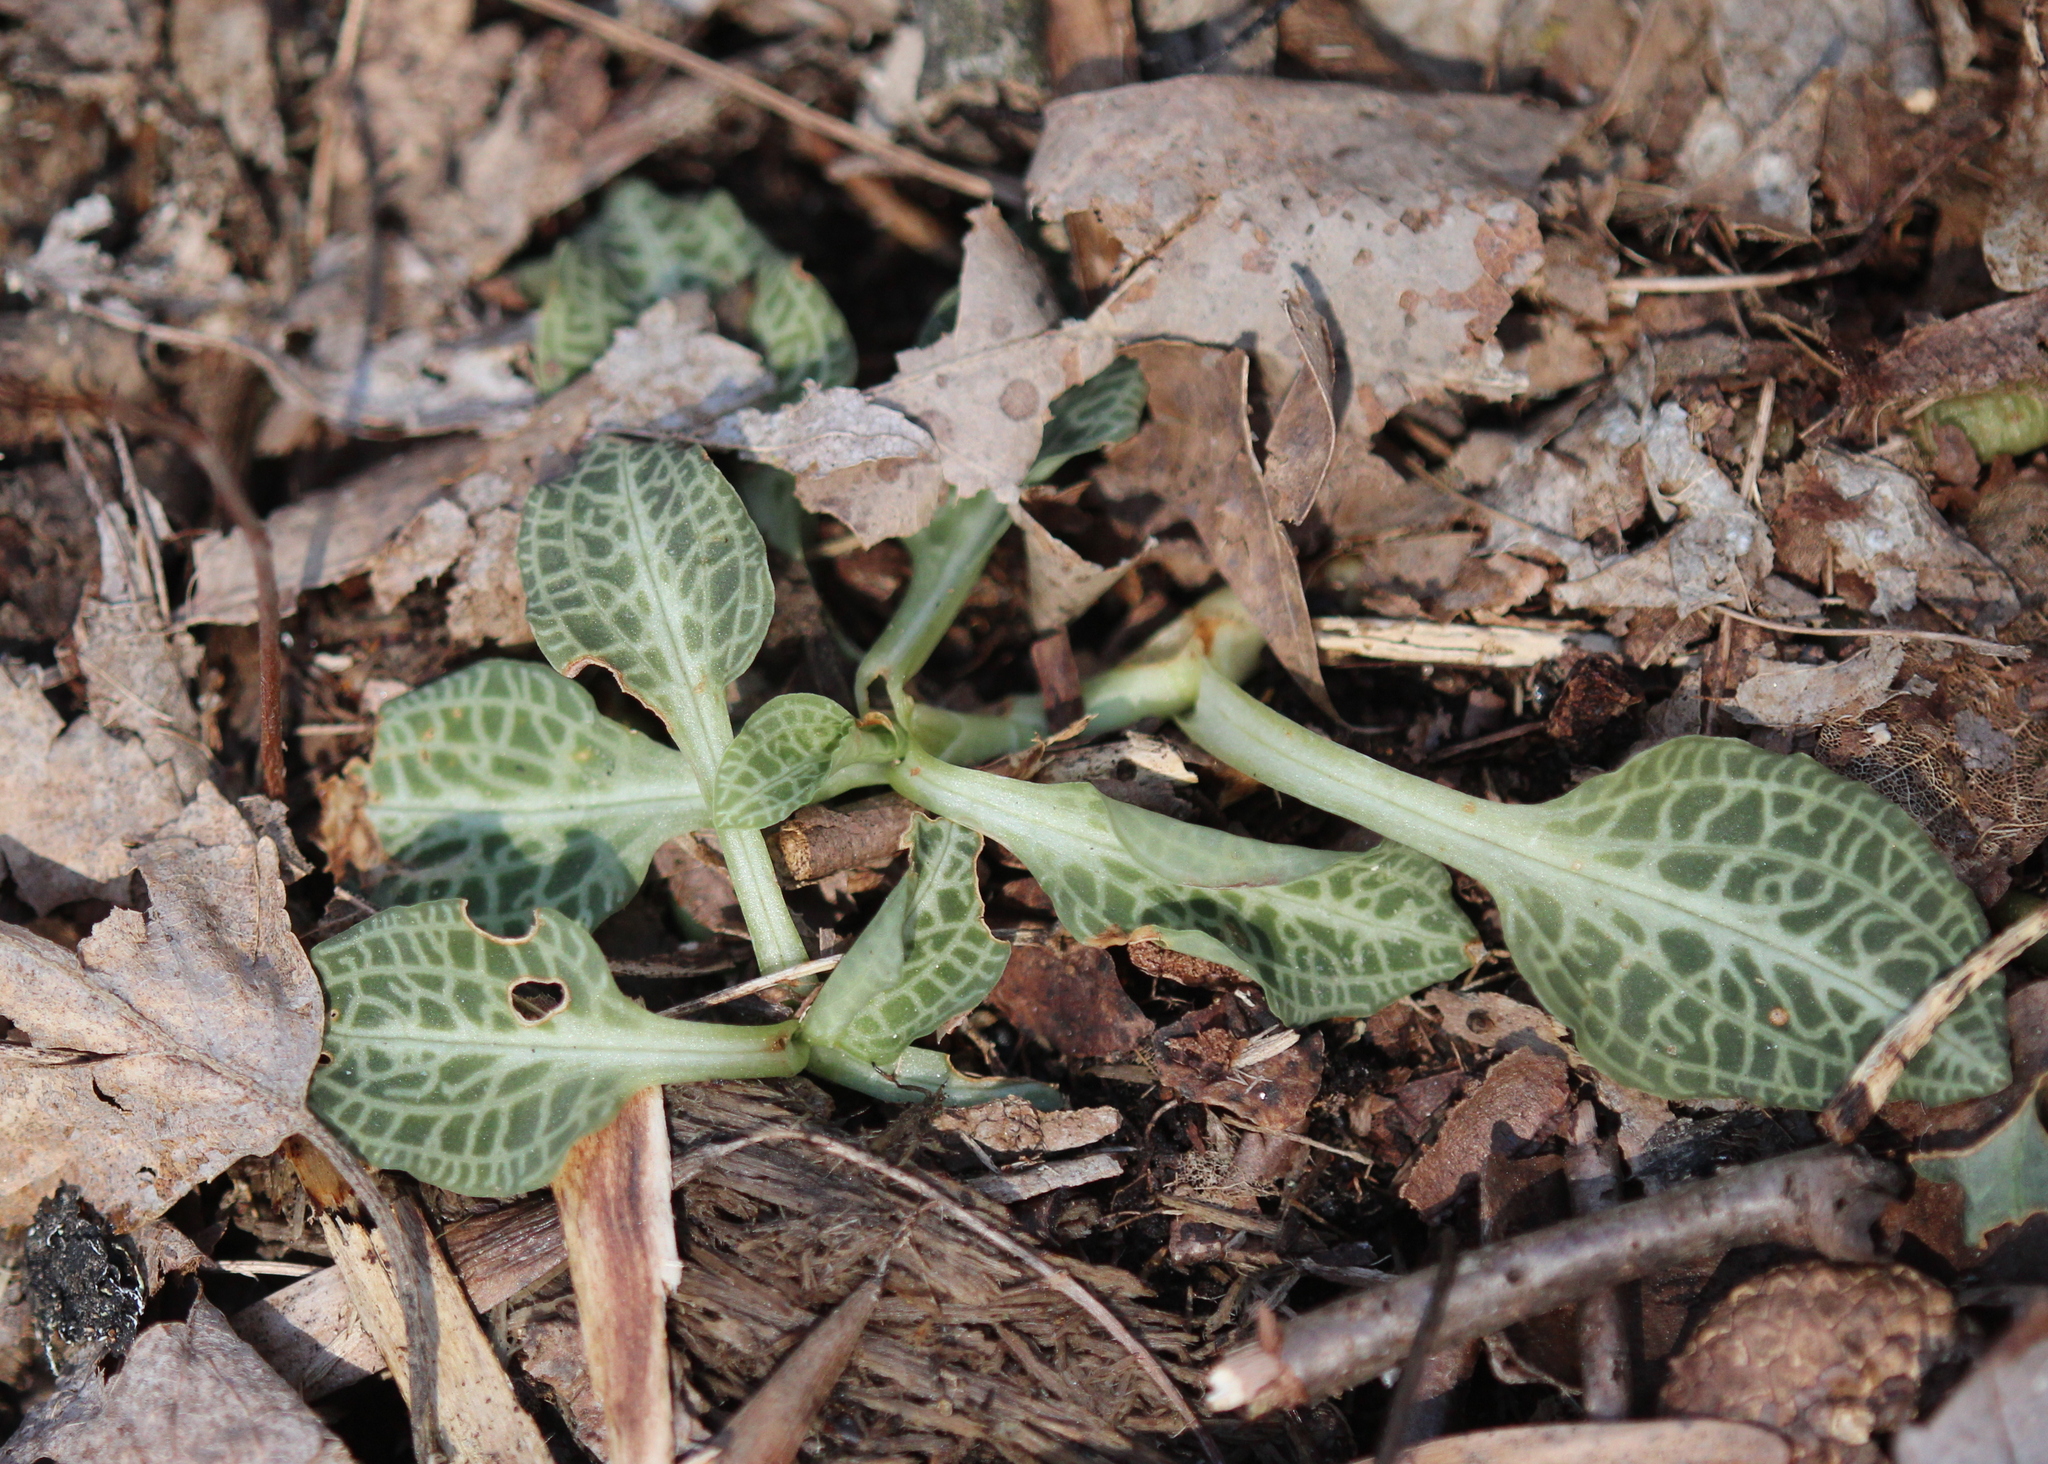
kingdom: Plantae
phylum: Tracheophyta
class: Liliopsida
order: Asparagales
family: Orchidaceae
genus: Goodyera
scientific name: Goodyera pubescens
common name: Downy rattlesnake-plantain
